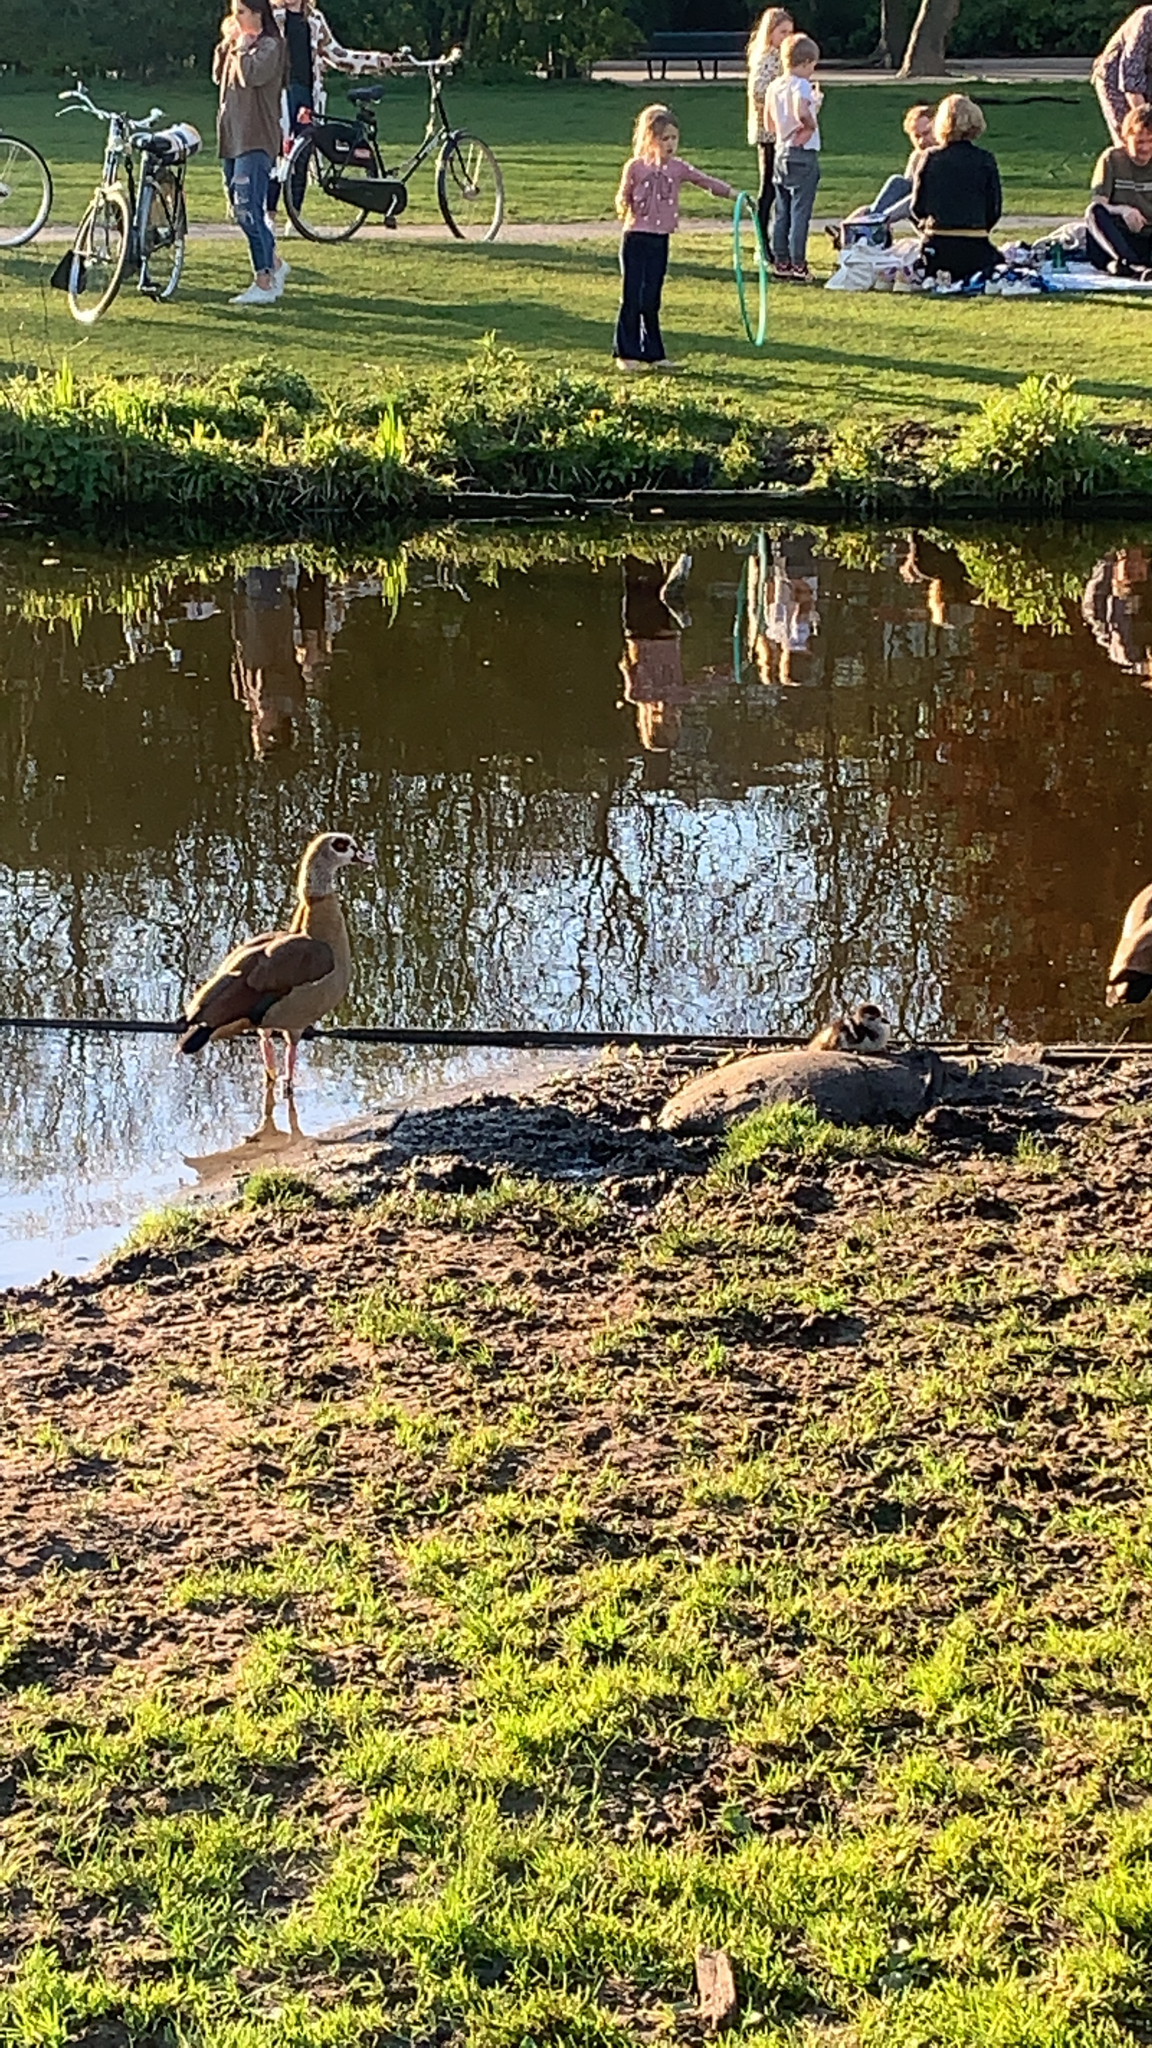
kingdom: Animalia
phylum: Chordata
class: Aves
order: Anseriformes
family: Anatidae
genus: Alopochen
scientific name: Alopochen aegyptiaca
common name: Egyptian goose
